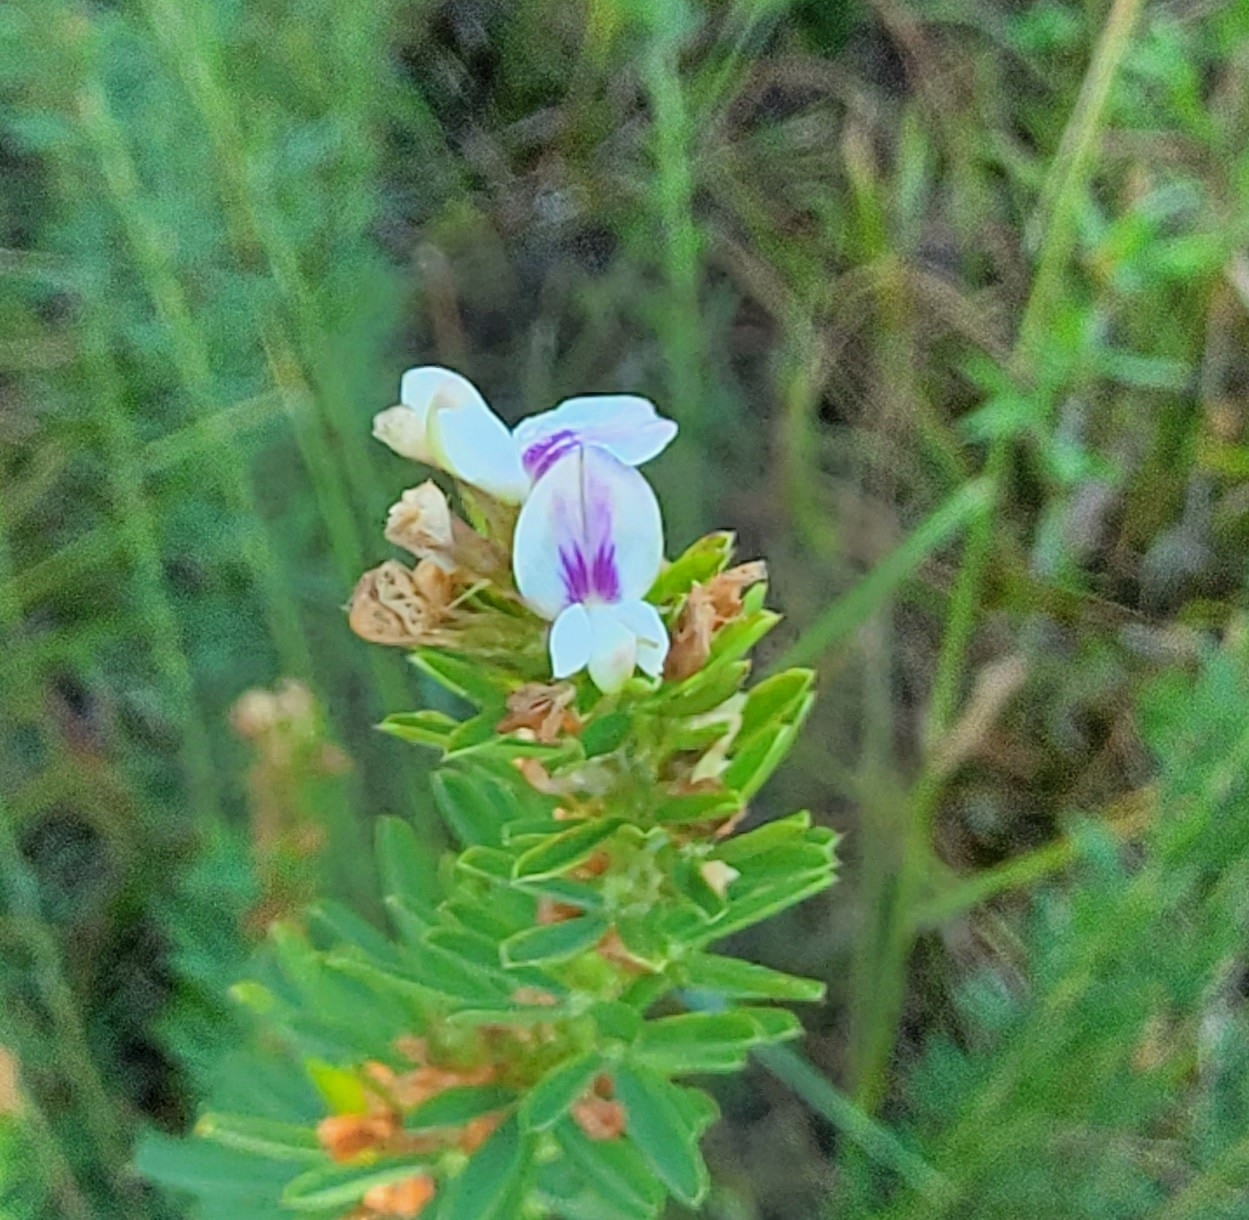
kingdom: Plantae
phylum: Tracheophyta
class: Magnoliopsida
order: Fabales
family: Fabaceae
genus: Lespedeza
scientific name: Lespedeza cuneata
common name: Chinese bush-clover
